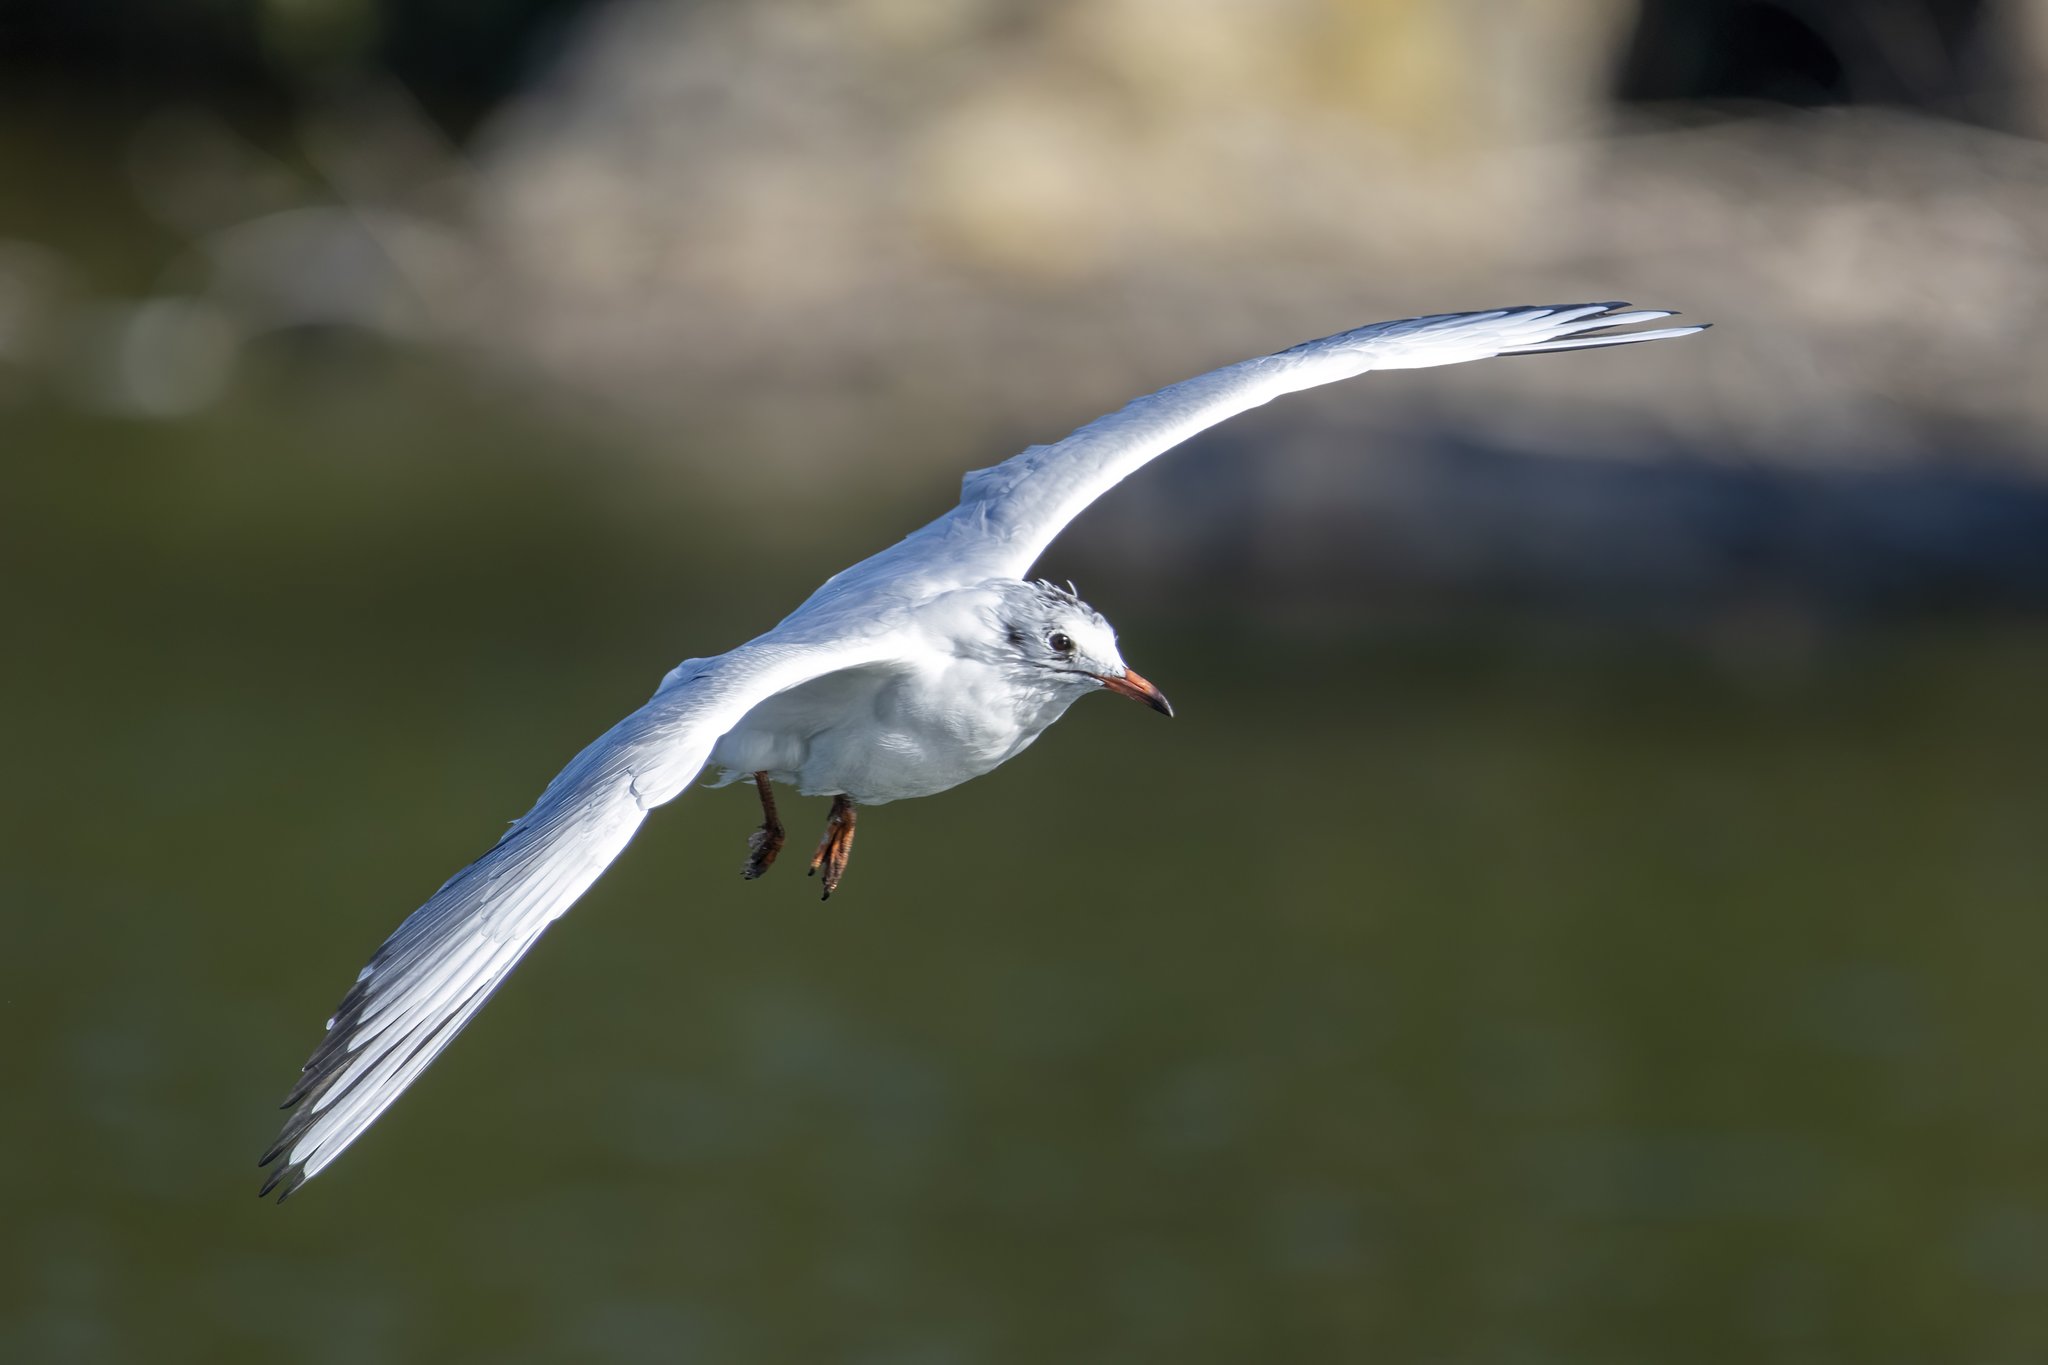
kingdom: Animalia
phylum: Chordata
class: Aves
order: Charadriiformes
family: Laridae
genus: Chroicocephalus
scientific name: Chroicocephalus ridibundus
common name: Black-headed gull
